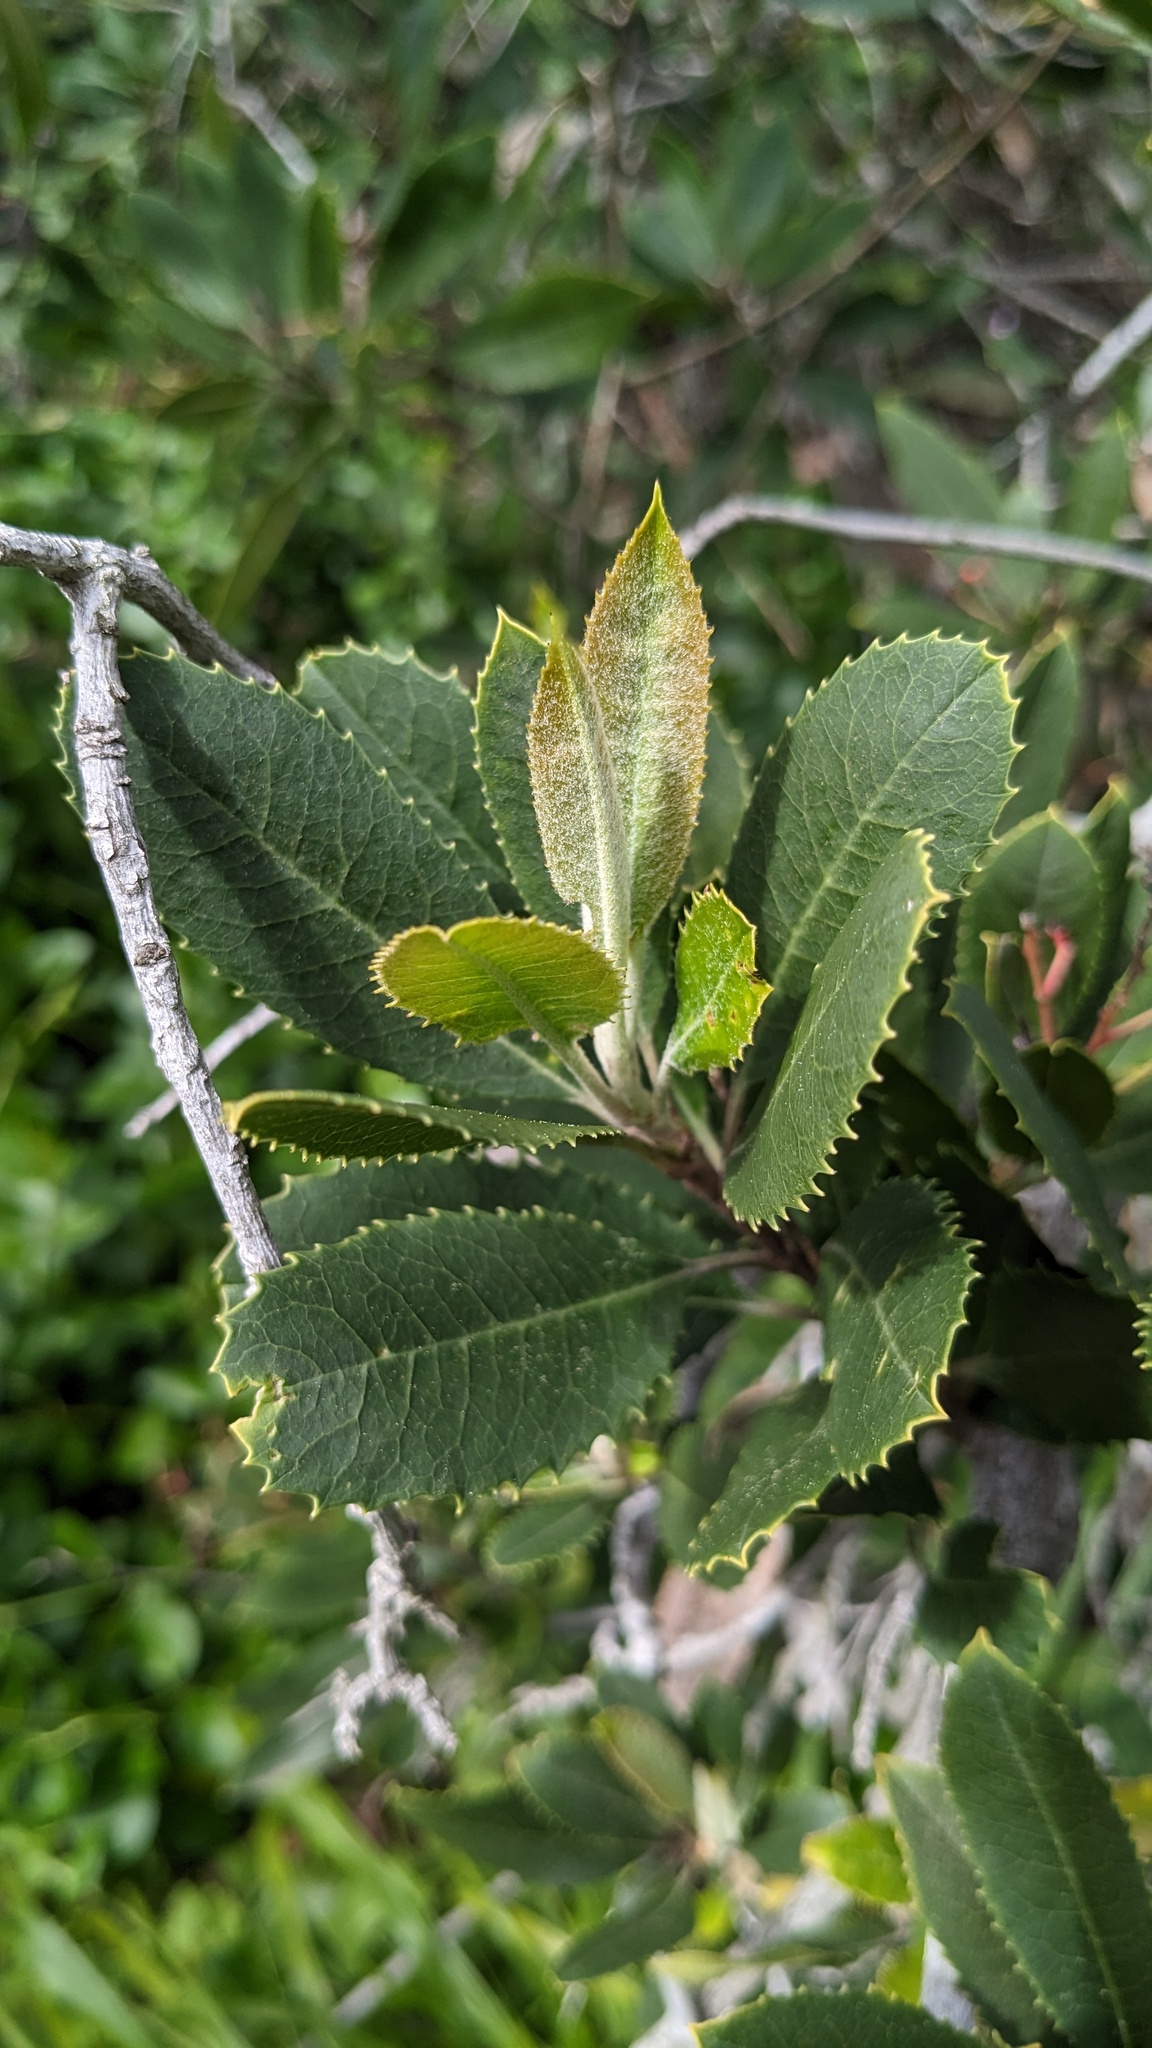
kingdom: Plantae
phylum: Tracheophyta
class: Magnoliopsida
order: Rosales
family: Rosaceae
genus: Heteromeles
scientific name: Heteromeles arbutifolia
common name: California-holly
